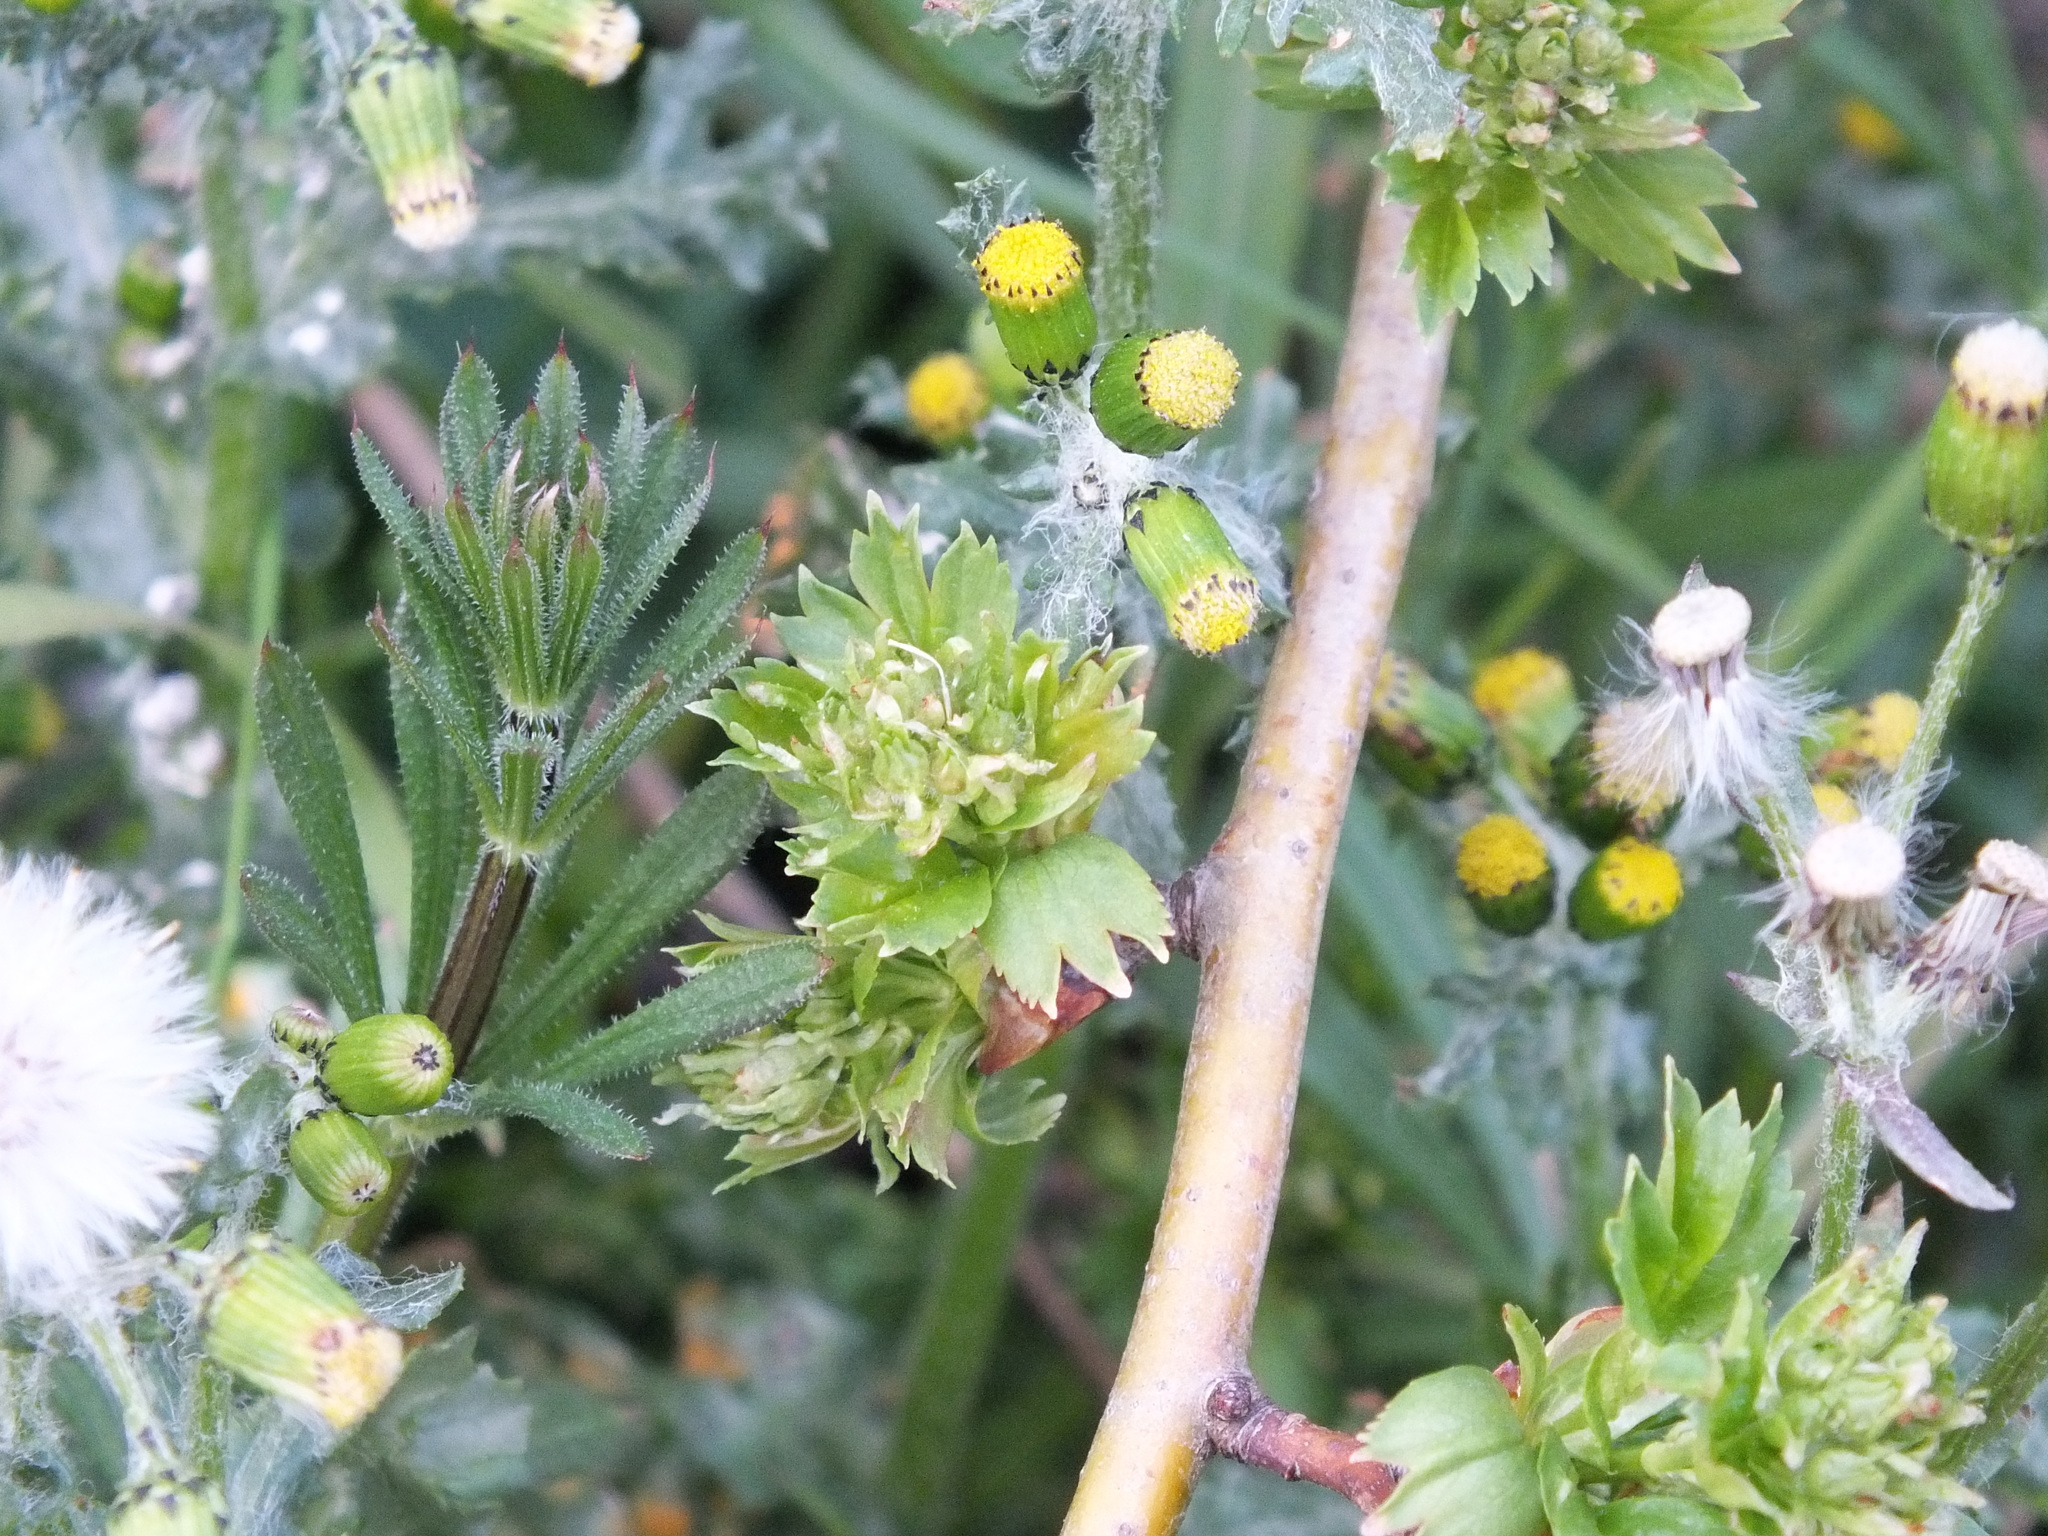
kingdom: Plantae
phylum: Tracheophyta
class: Magnoliopsida
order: Asterales
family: Asteraceae
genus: Senecio
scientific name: Senecio vulgaris
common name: Old-man-in-the-spring
